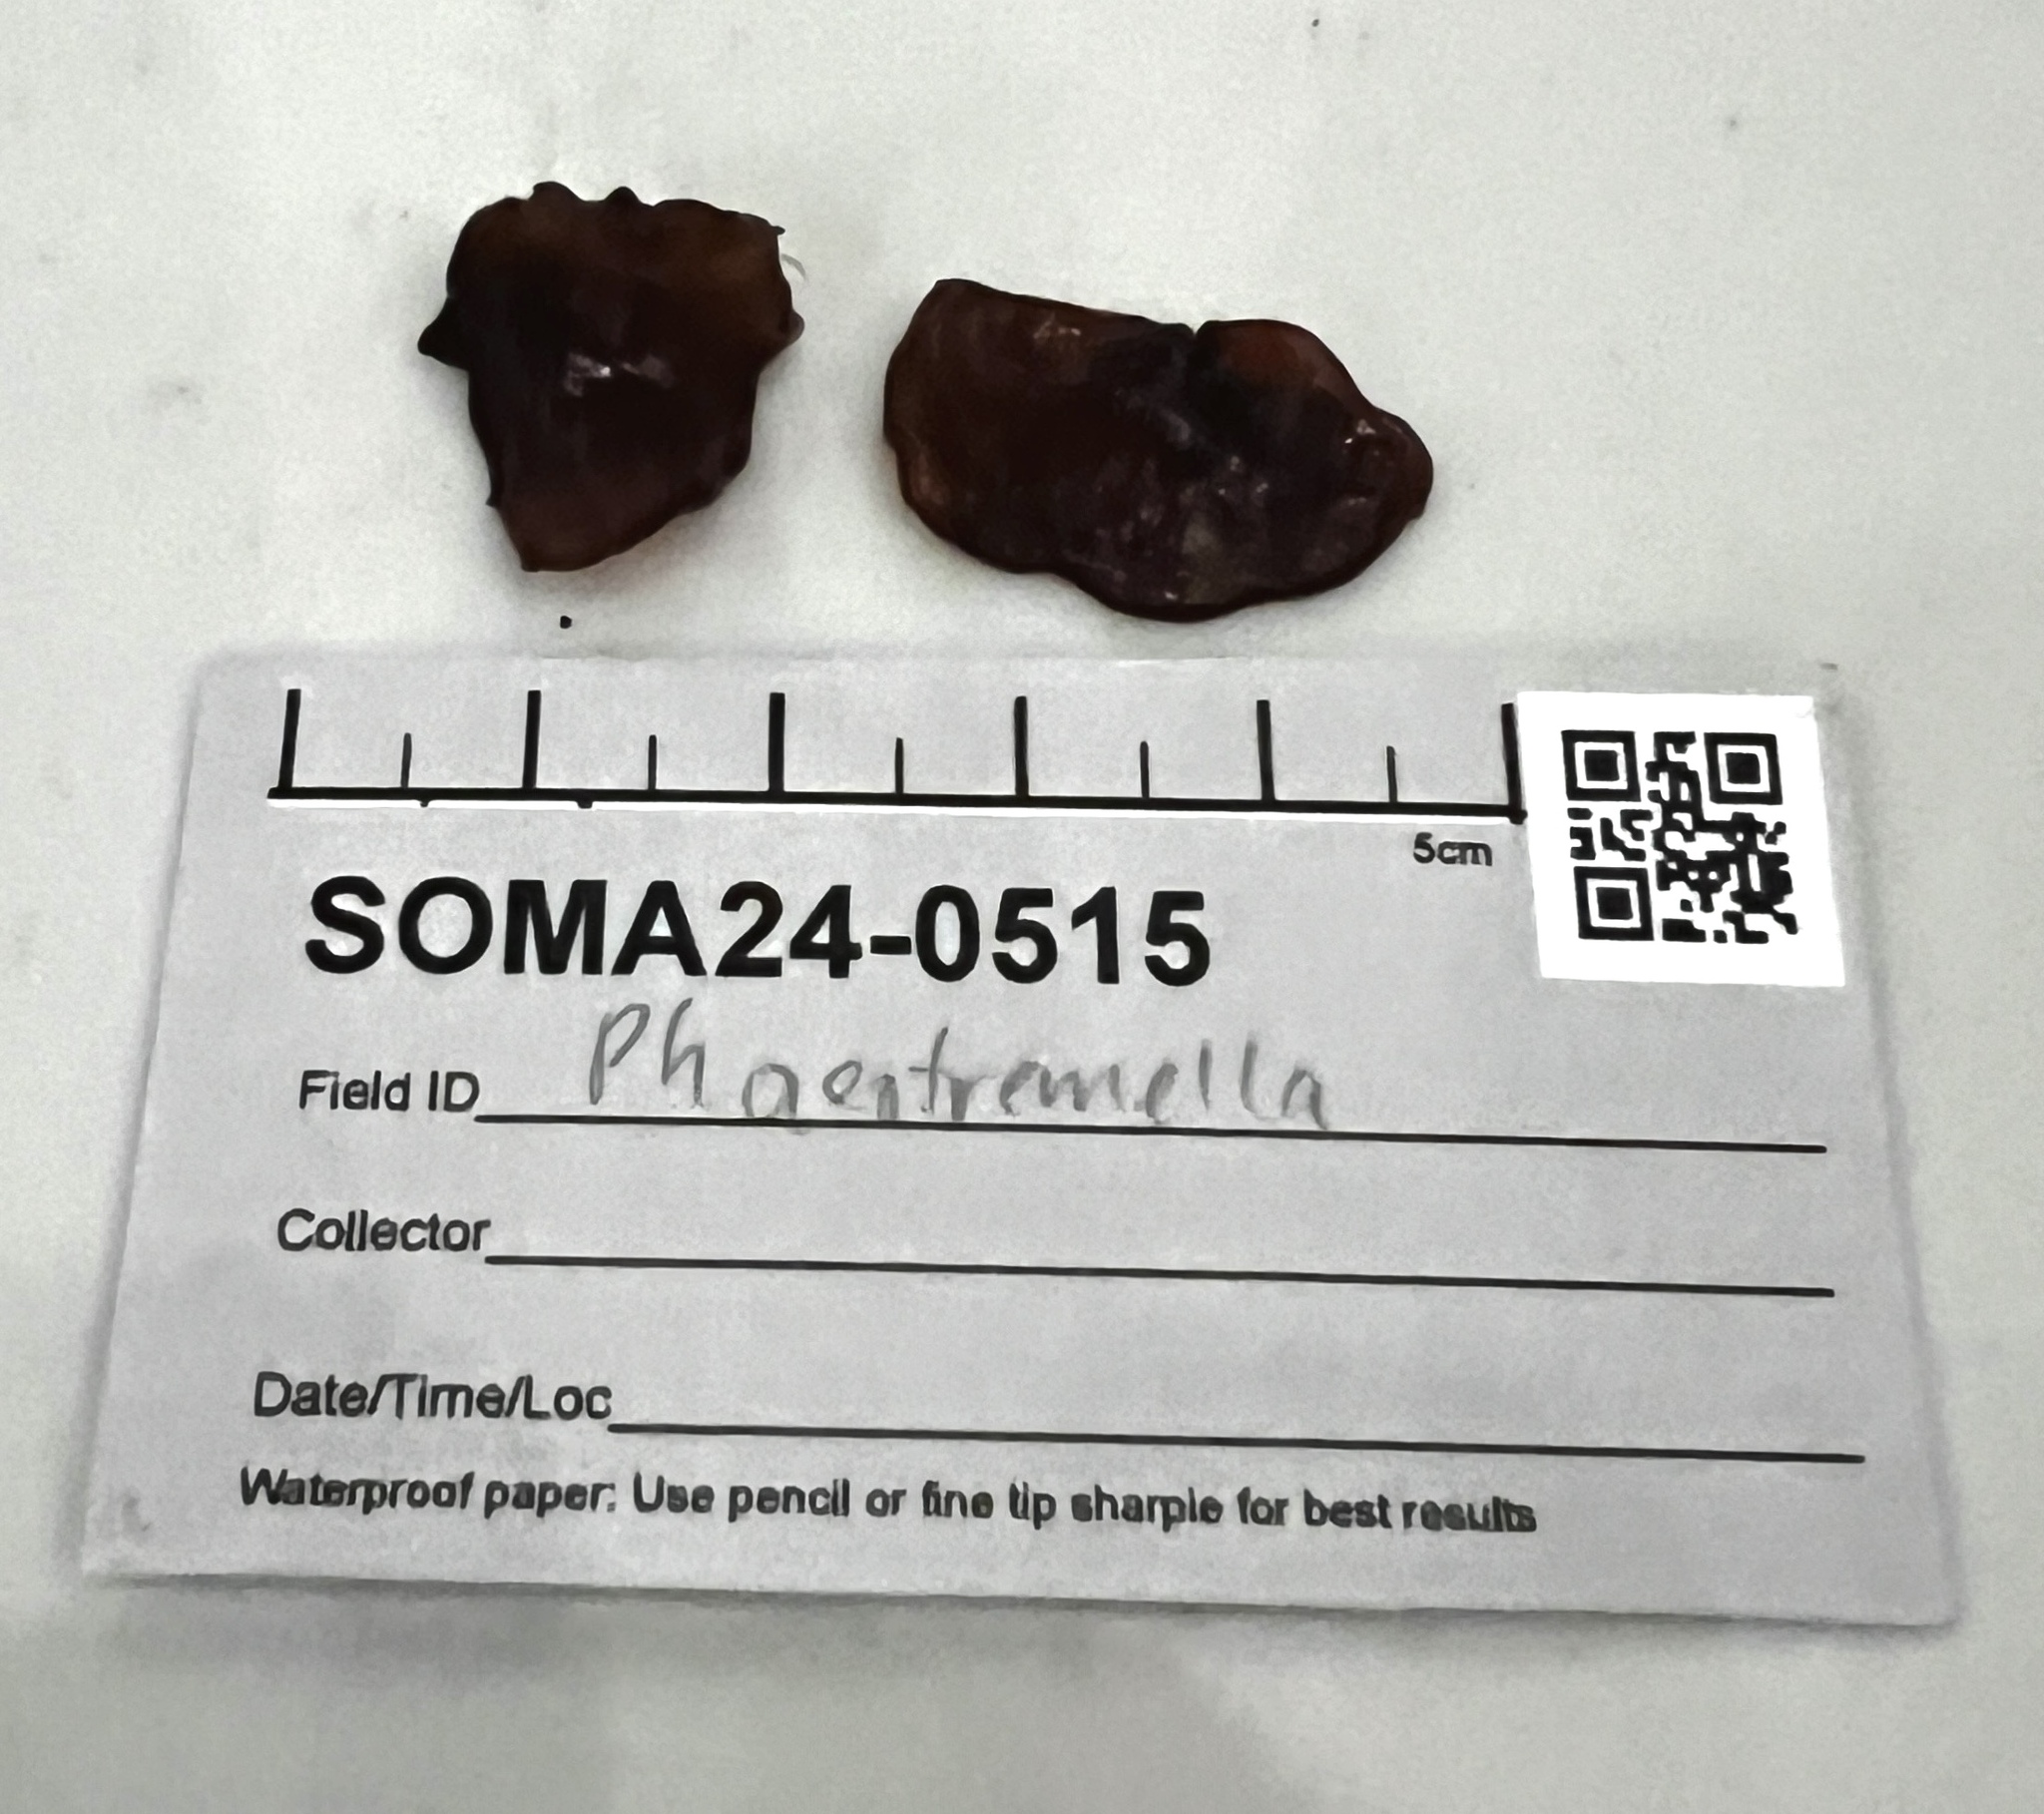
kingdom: Fungi
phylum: Basidiomycota
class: Tremellomycetes
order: Tremellales
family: Tremellaceae
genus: Phaeotremella
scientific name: Phaeotremella foliacea
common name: Leafy brain
